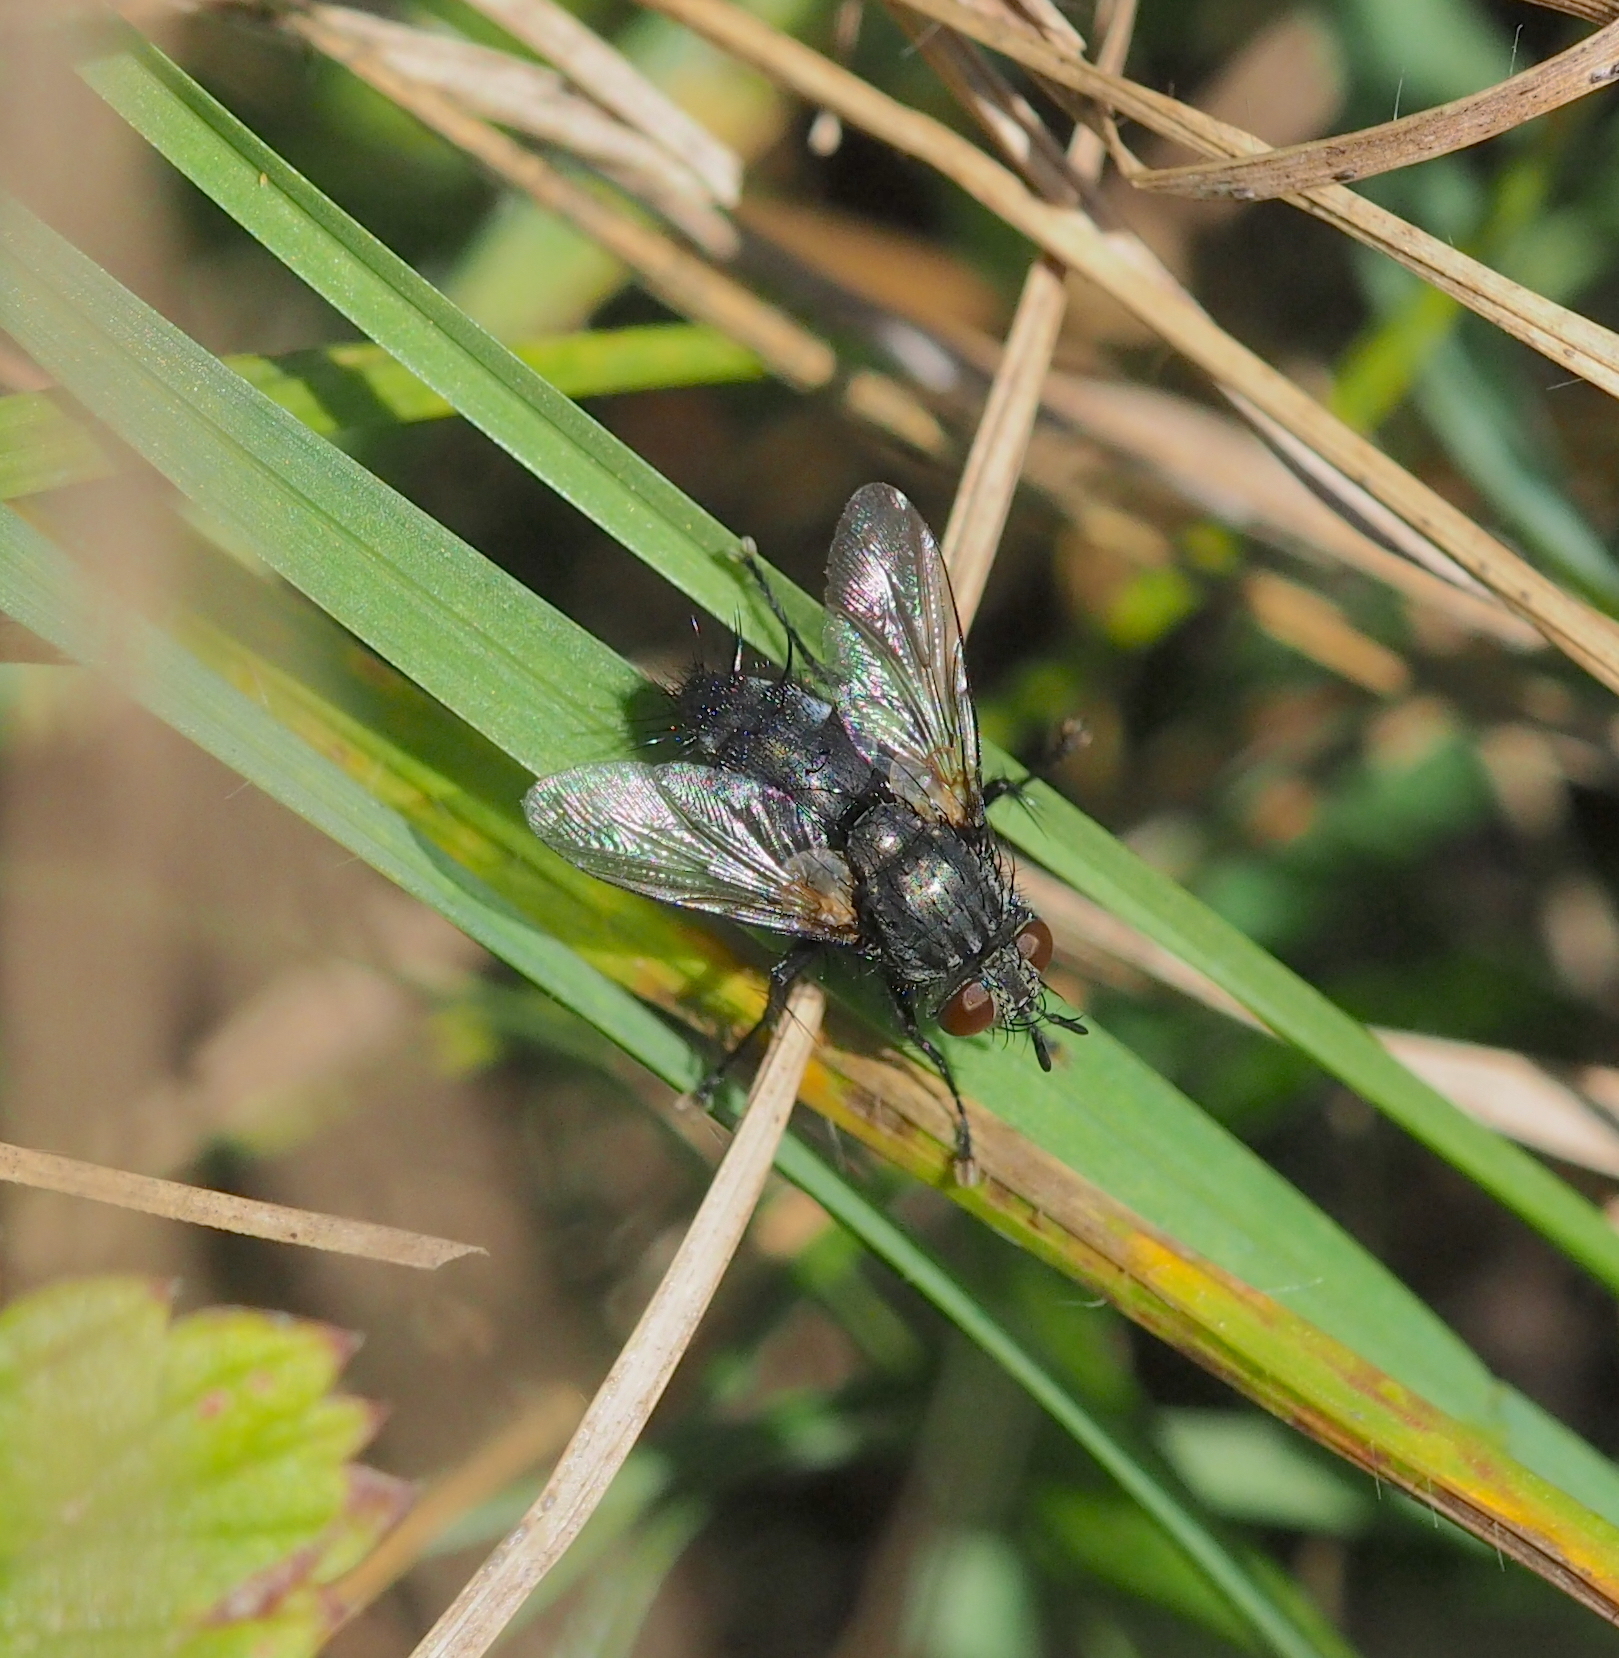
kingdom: Animalia
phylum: Arthropoda
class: Insecta
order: Diptera
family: Tachinidae
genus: Voria
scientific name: Voria ruralis
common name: Parasitic fly
